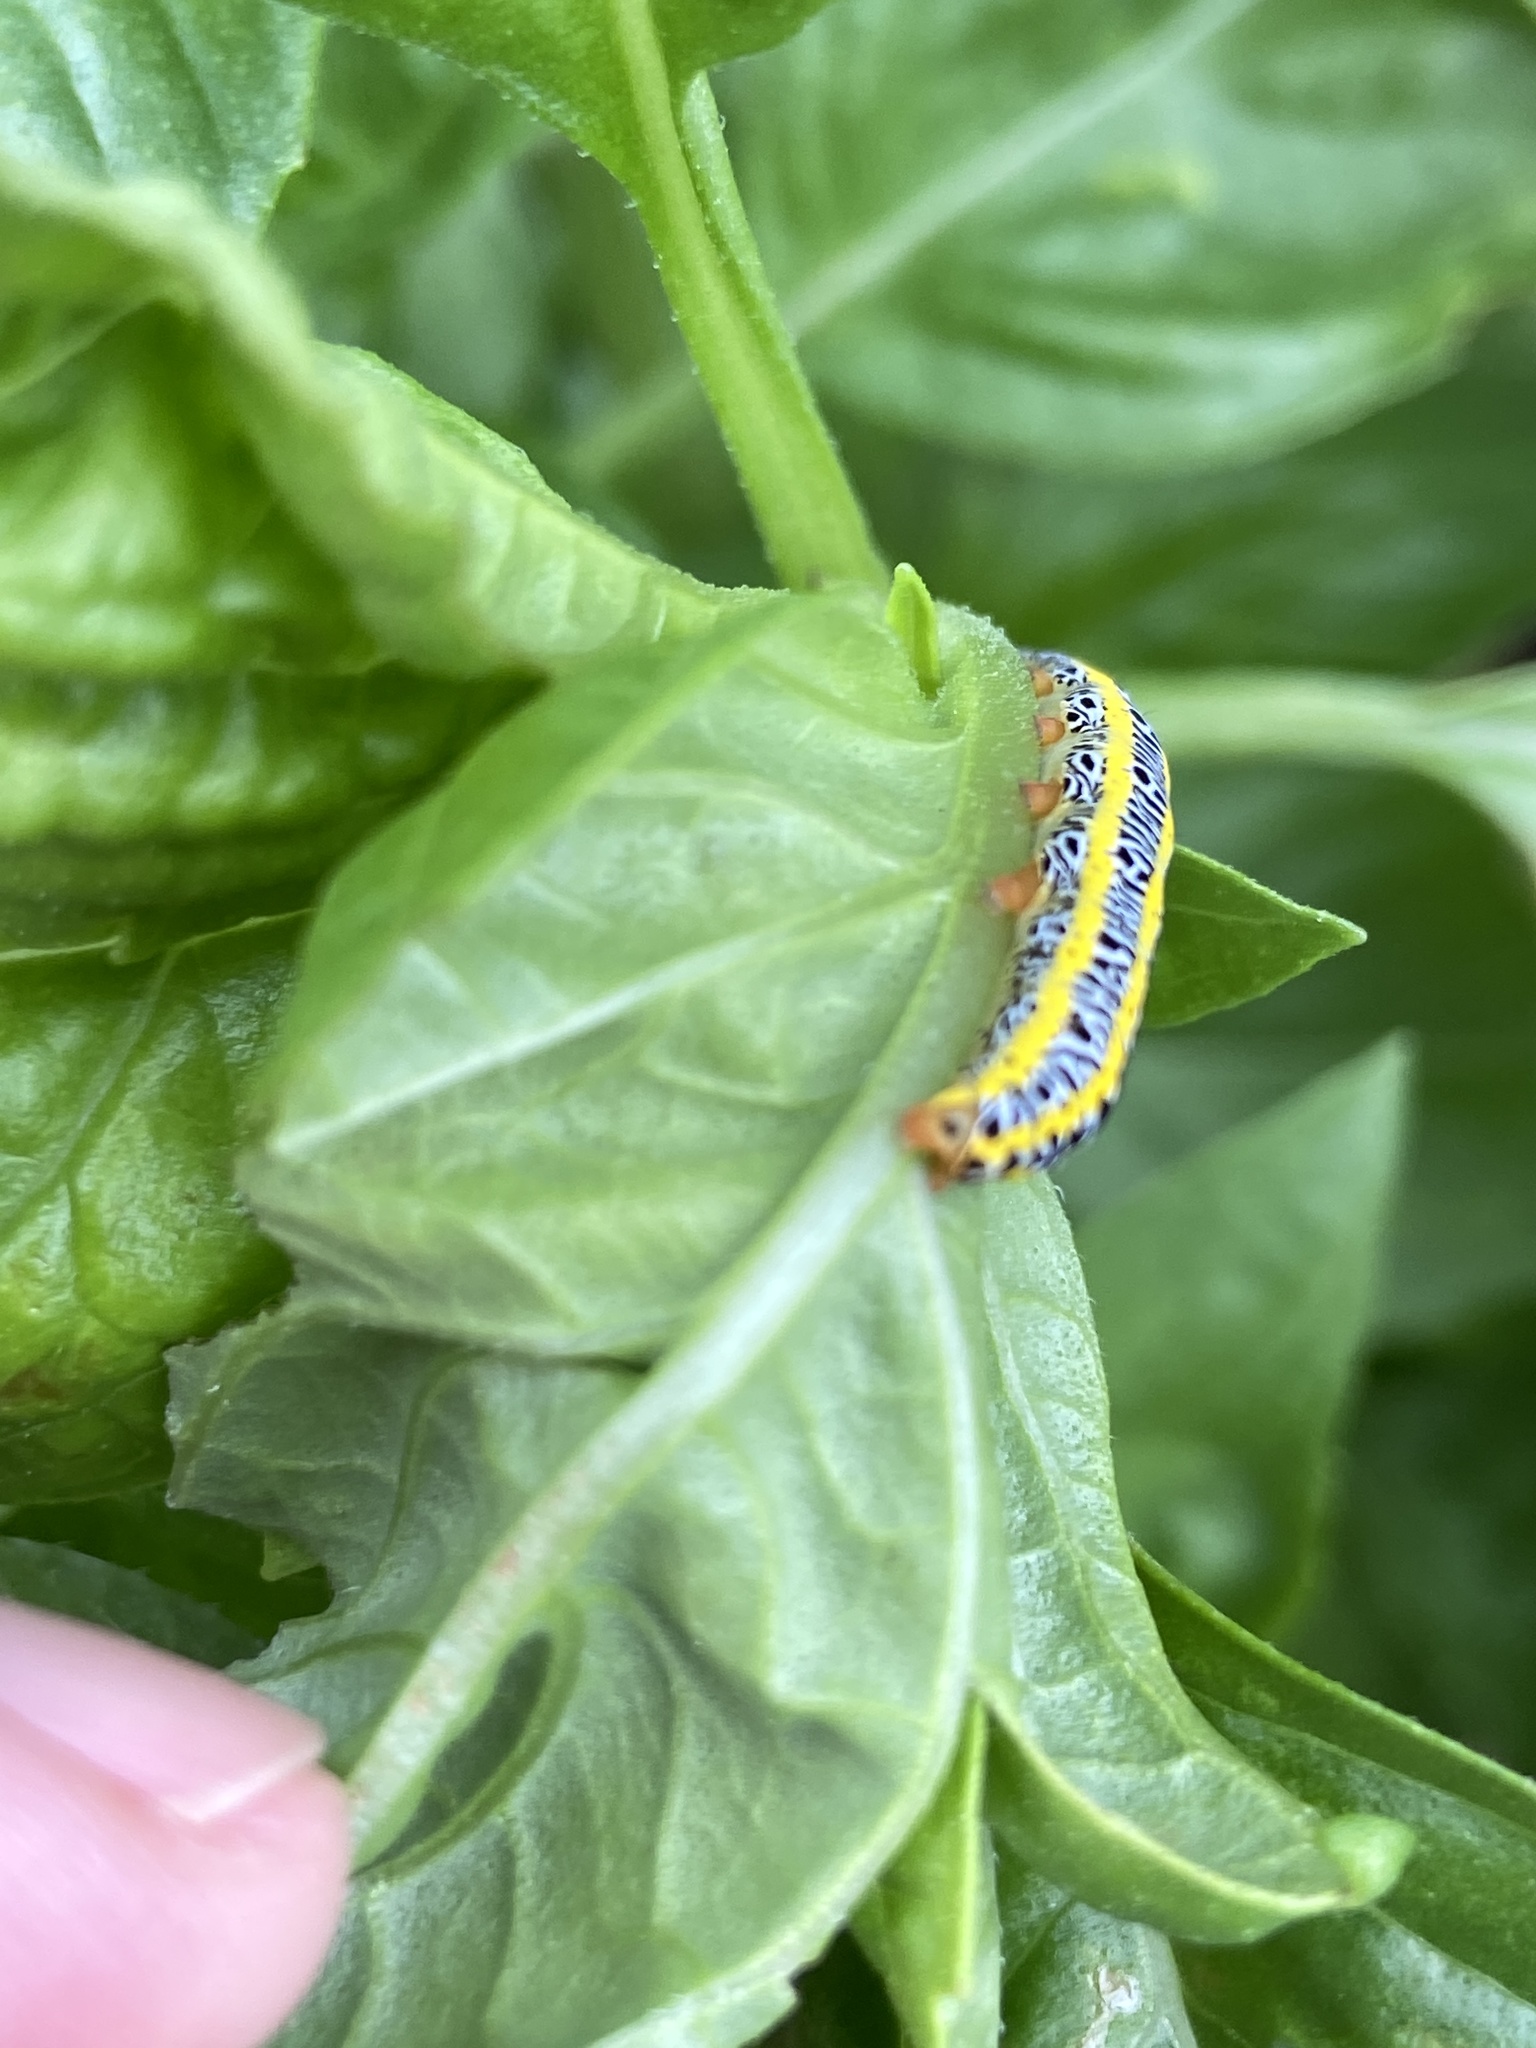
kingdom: Animalia
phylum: Arthropoda
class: Insecta
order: Lepidoptera
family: Noctuidae
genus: Melanchra
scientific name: Melanchra picta
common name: Zebra caterpillar
